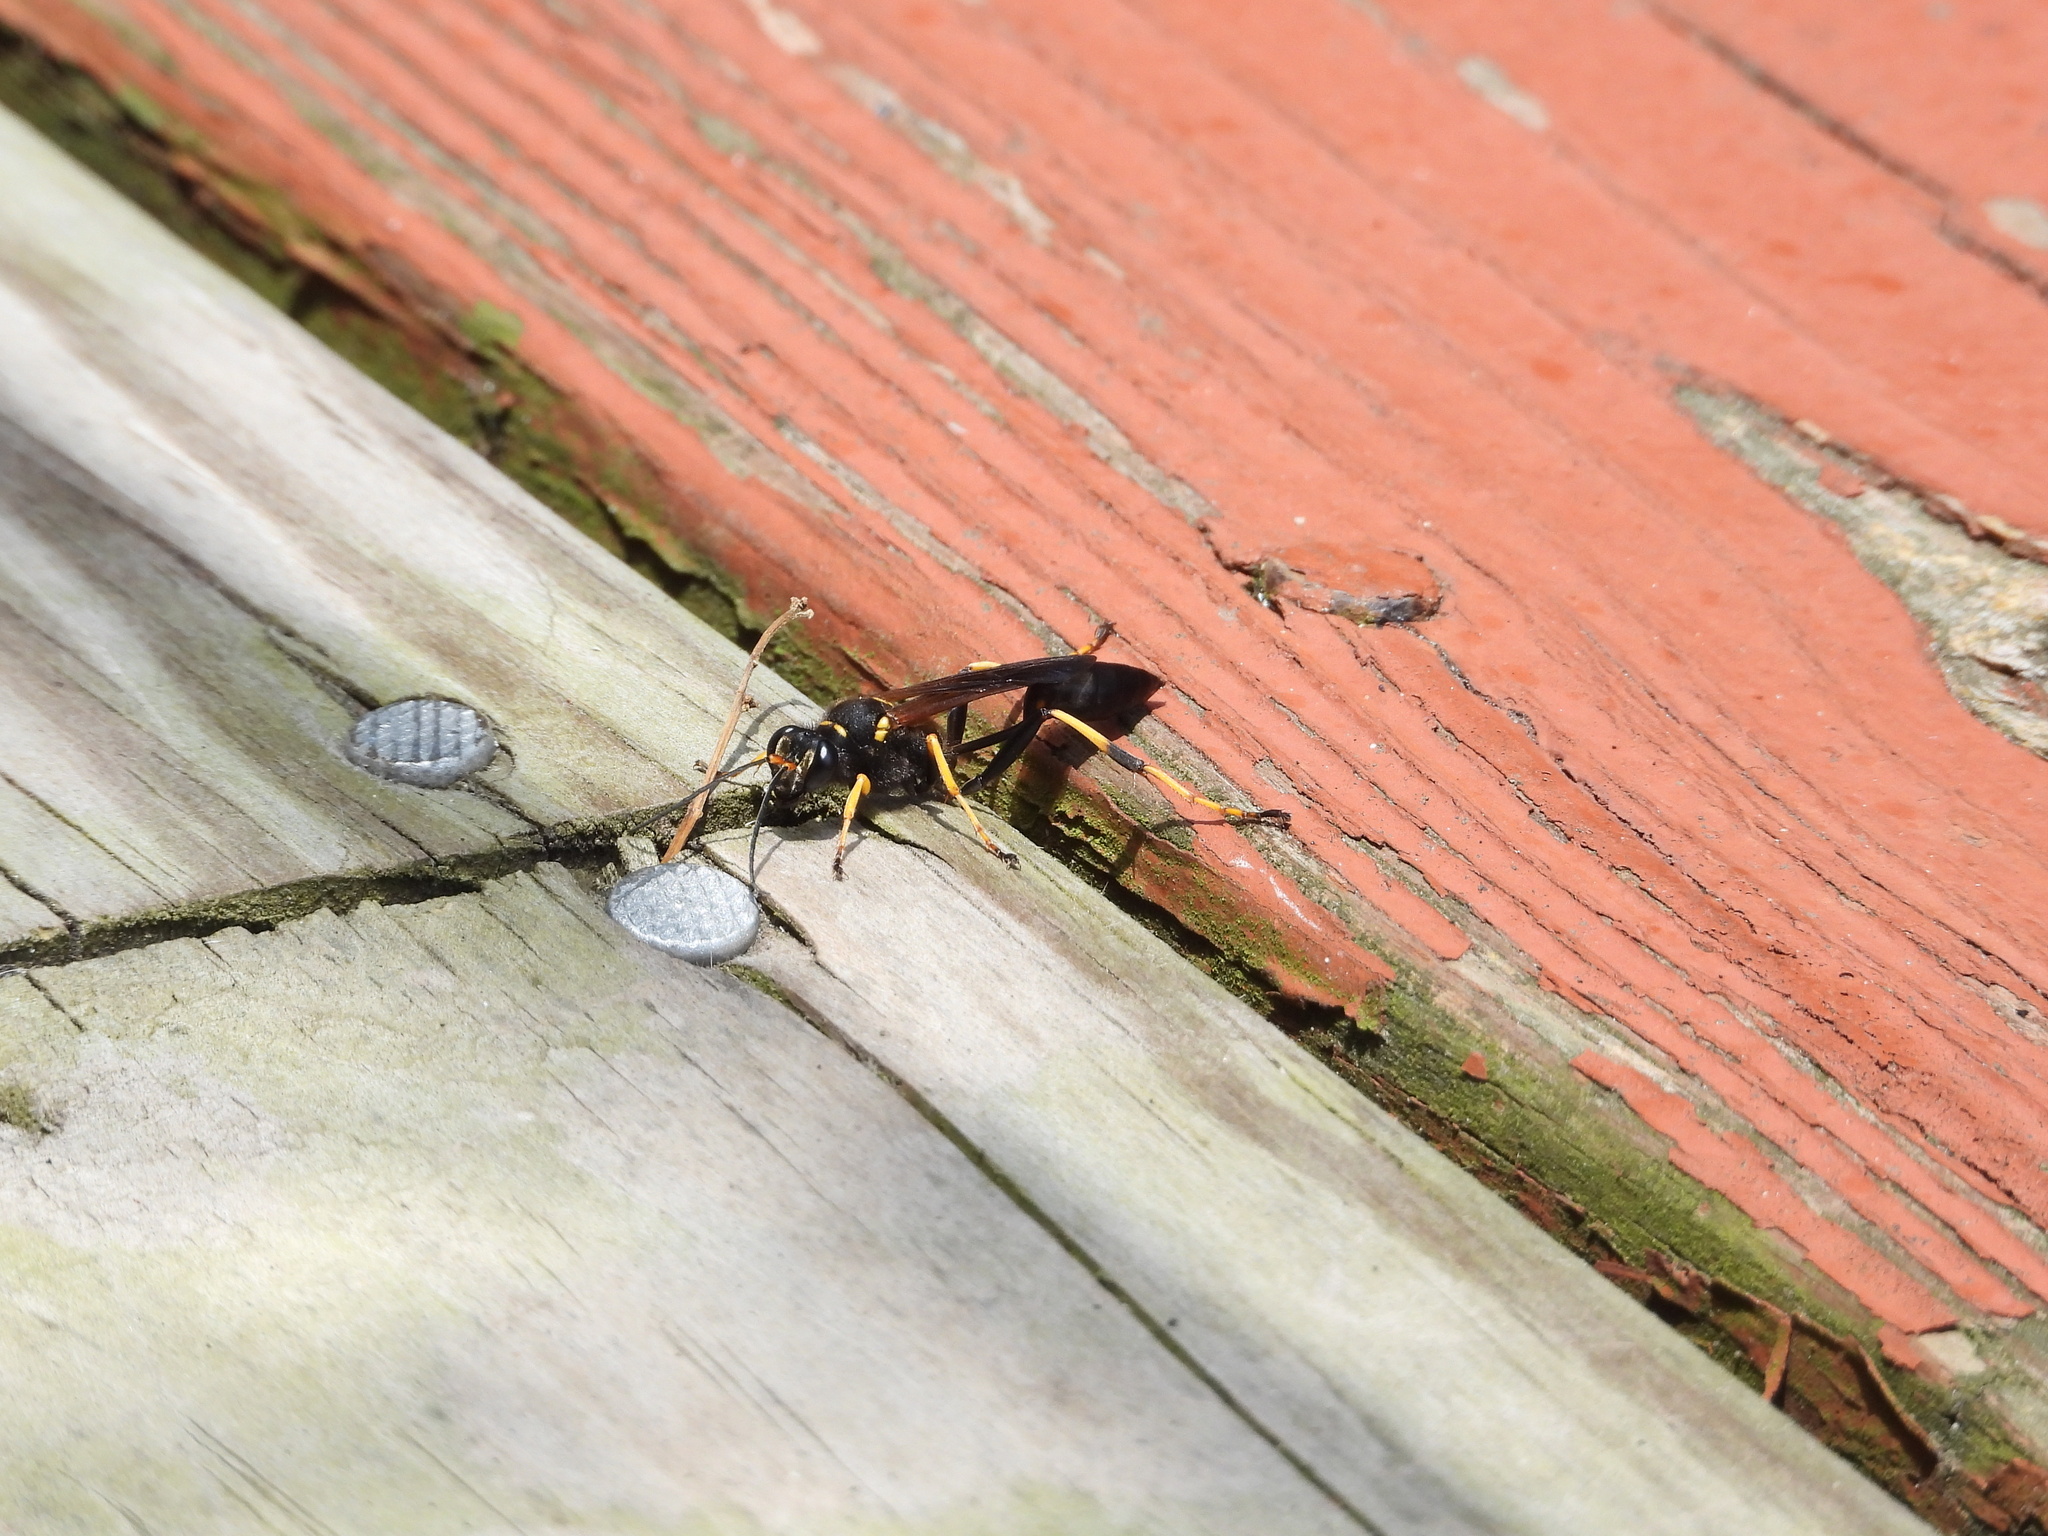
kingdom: Animalia
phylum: Arthropoda
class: Insecta
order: Hymenoptera
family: Sphecidae
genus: Sceliphron
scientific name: Sceliphron caementarium
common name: Mud dauber
